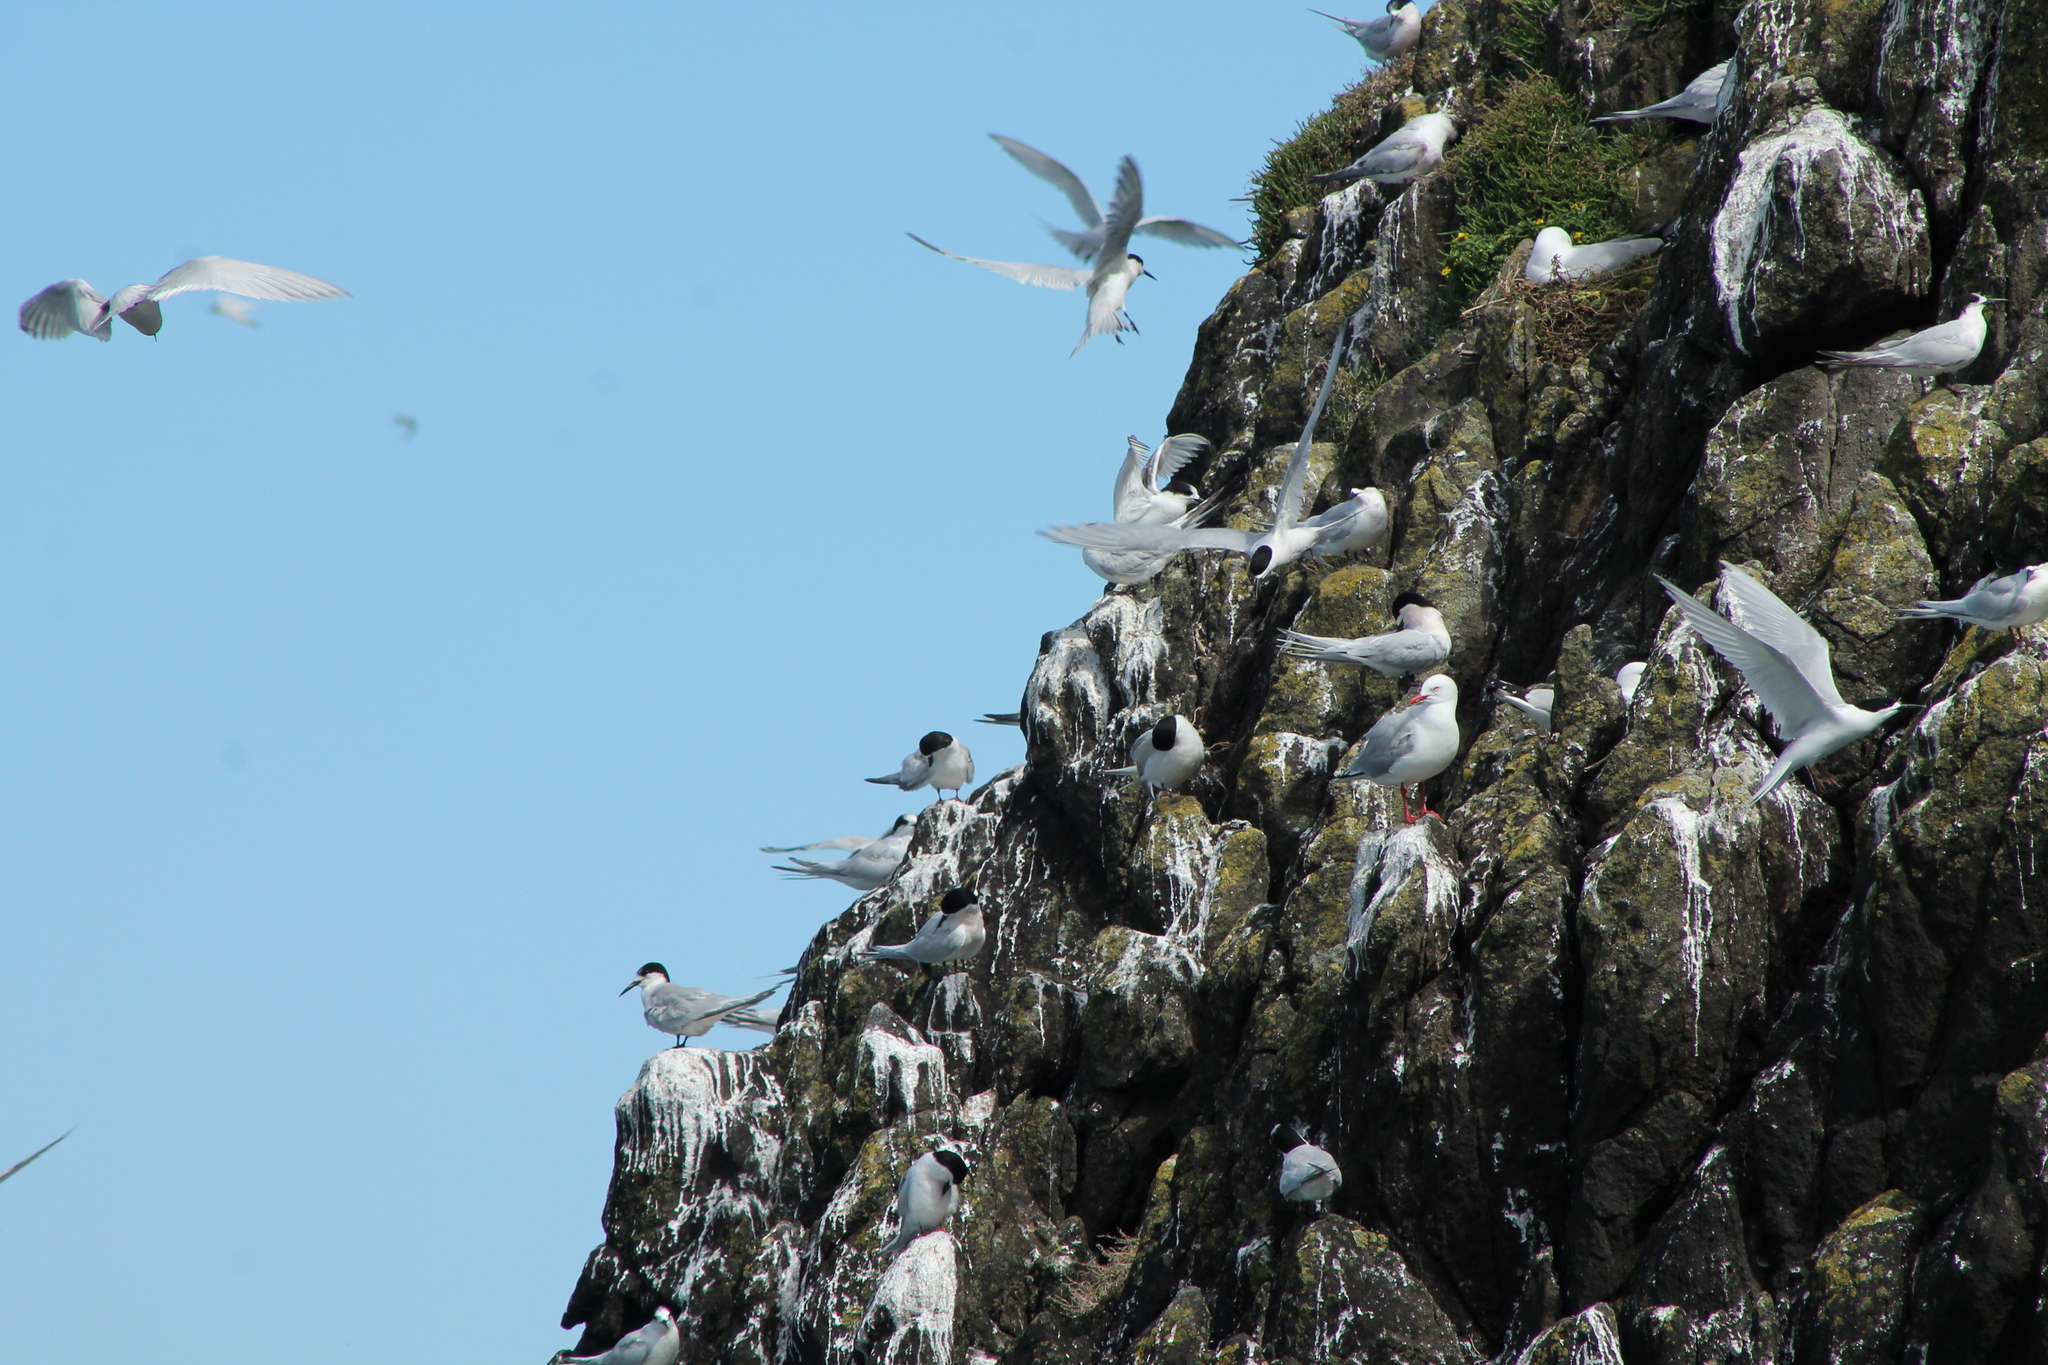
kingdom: Animalia
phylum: Chordata
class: Aves
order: Charadriiformes
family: Laridae
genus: Chroicocephalus
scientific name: Chroicocephalus novaehollandiae
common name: Silver gull
